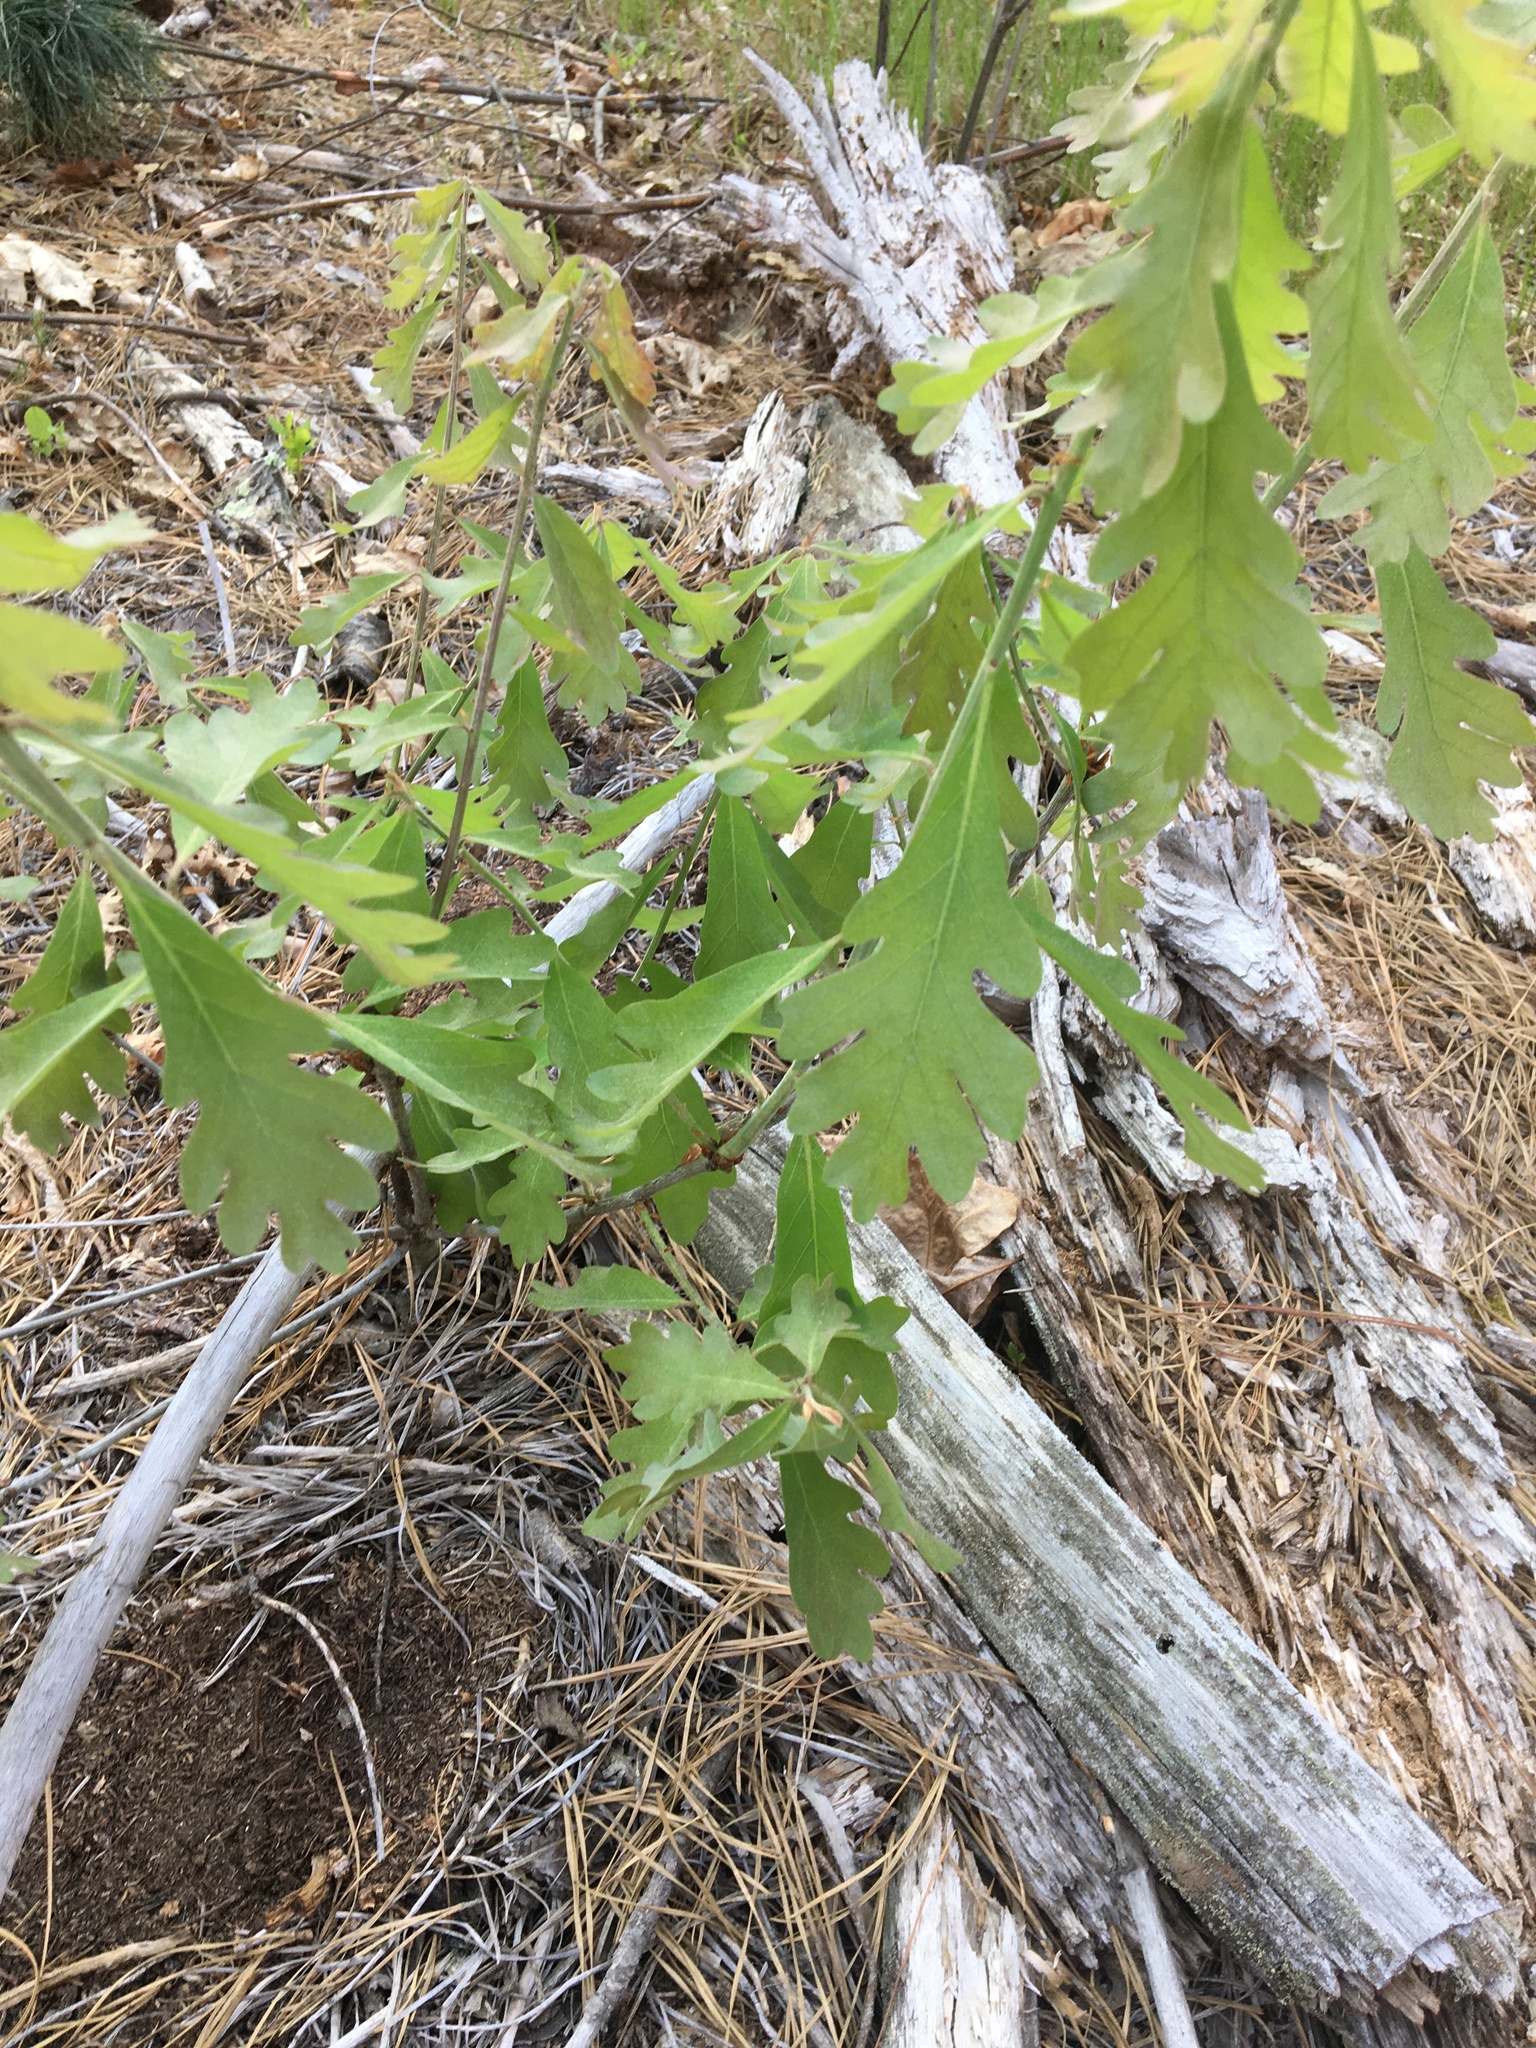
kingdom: Plantae
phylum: Tracheophyta
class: Magnoliopsida
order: Fagales
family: Fagaceae
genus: Quercus
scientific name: Quercus alba
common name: White oak
